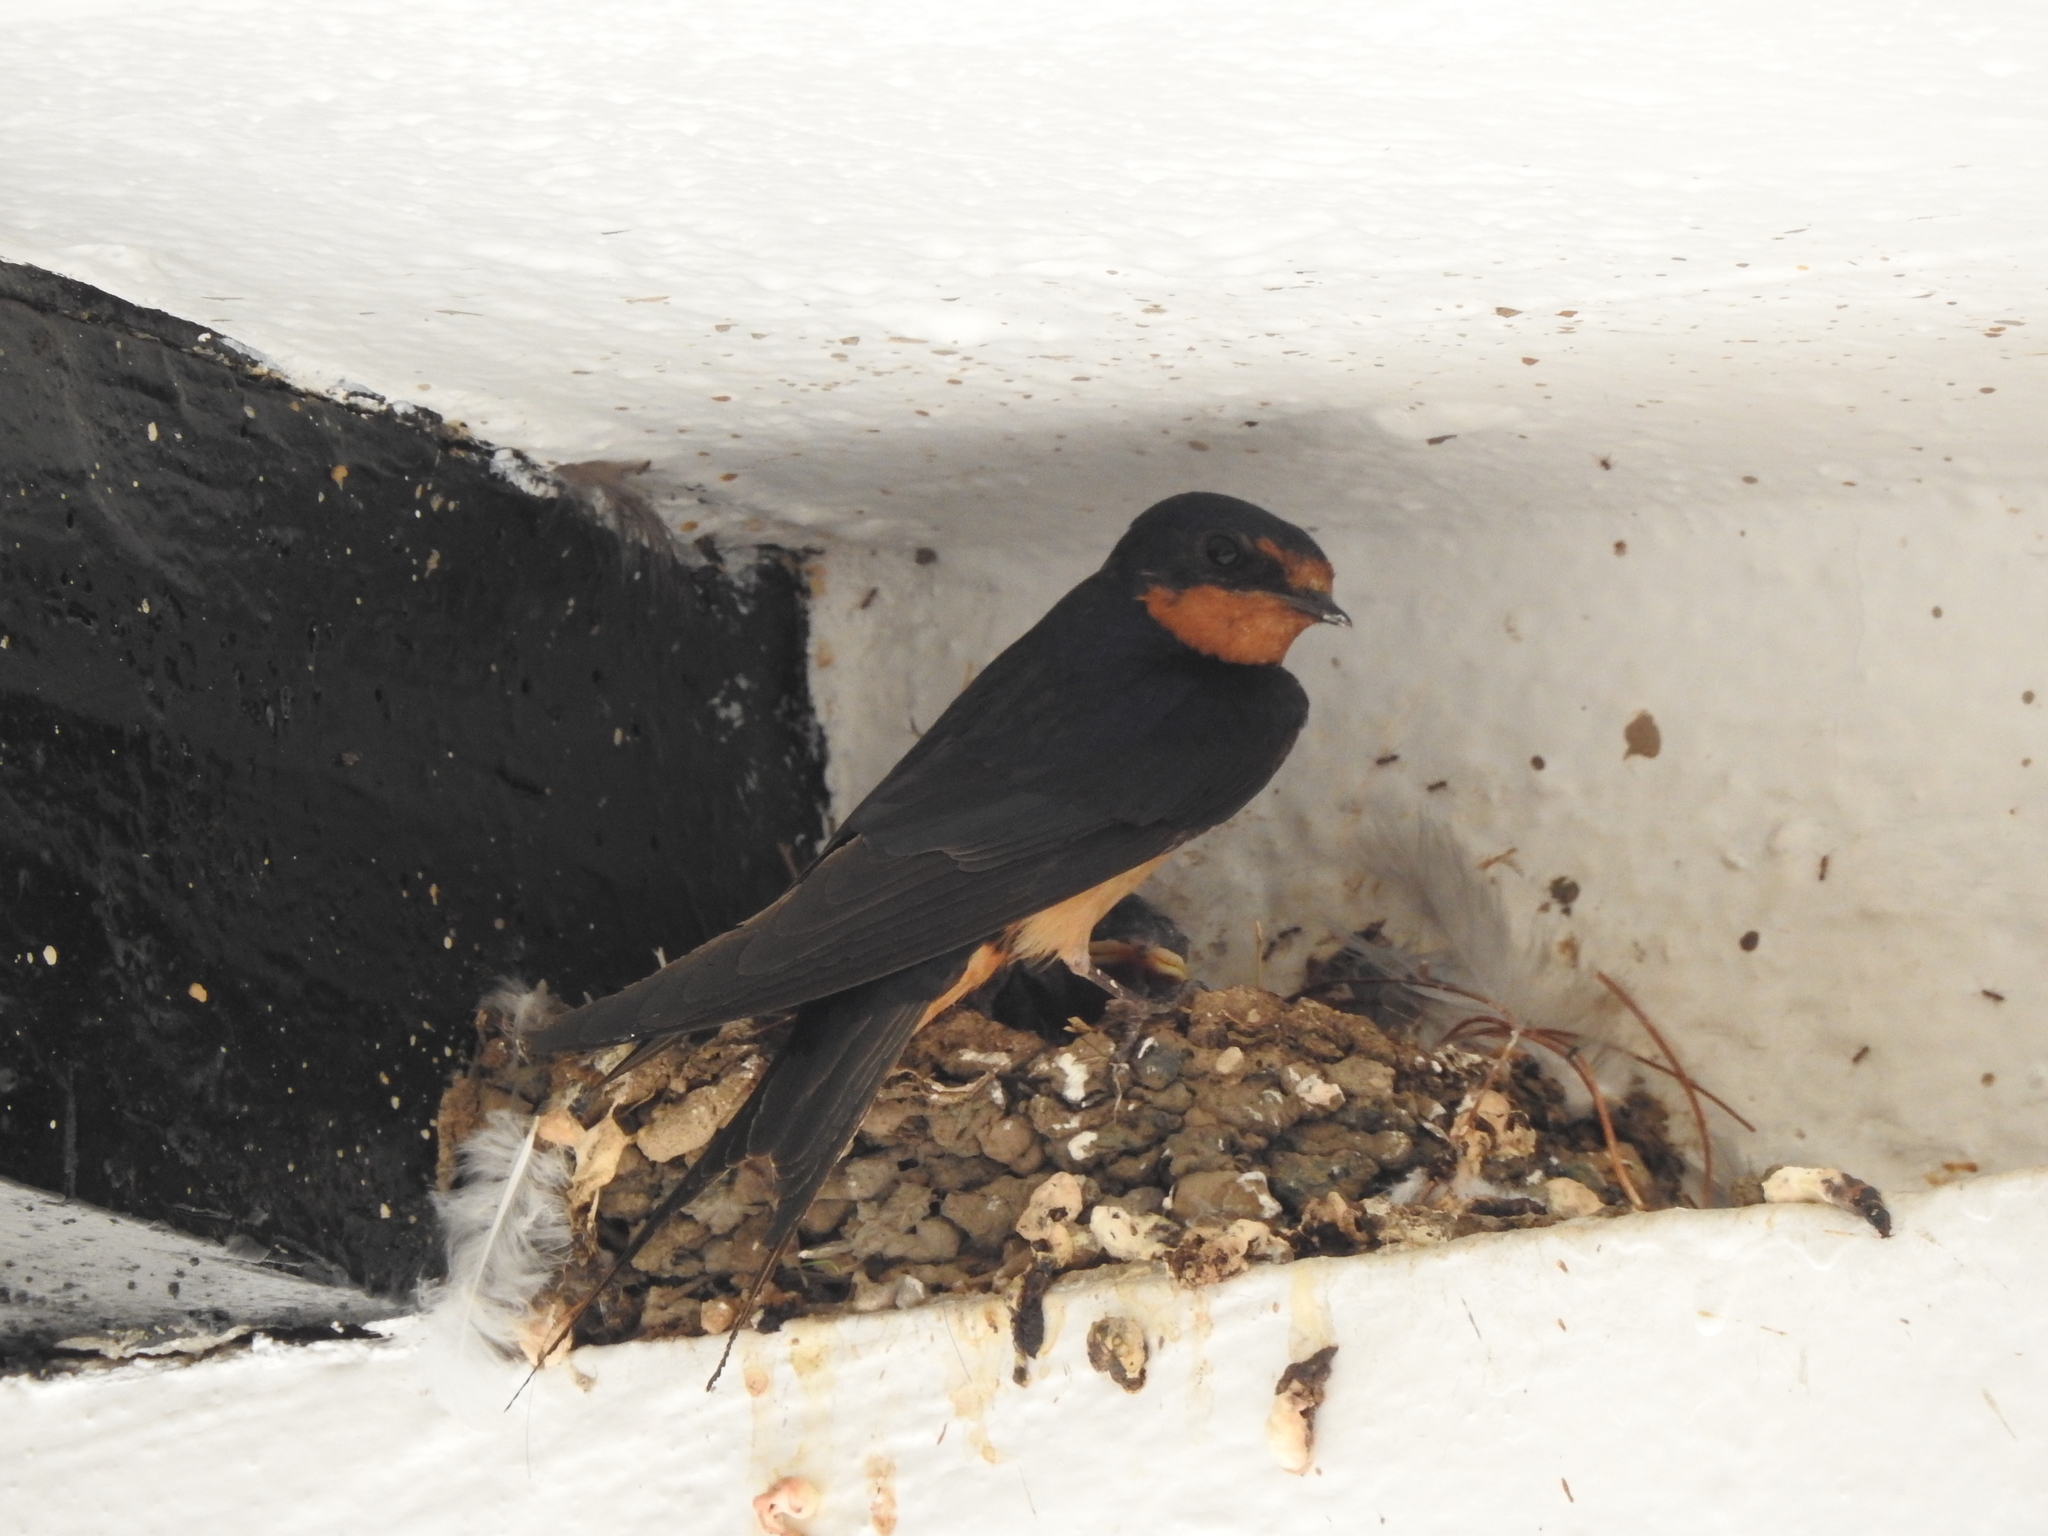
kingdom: Animalia
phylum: Chordata
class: Aves
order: Passeriformes
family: Hirundinidae
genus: Hirundo
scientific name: Hirundo rustica
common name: Barn swallow
